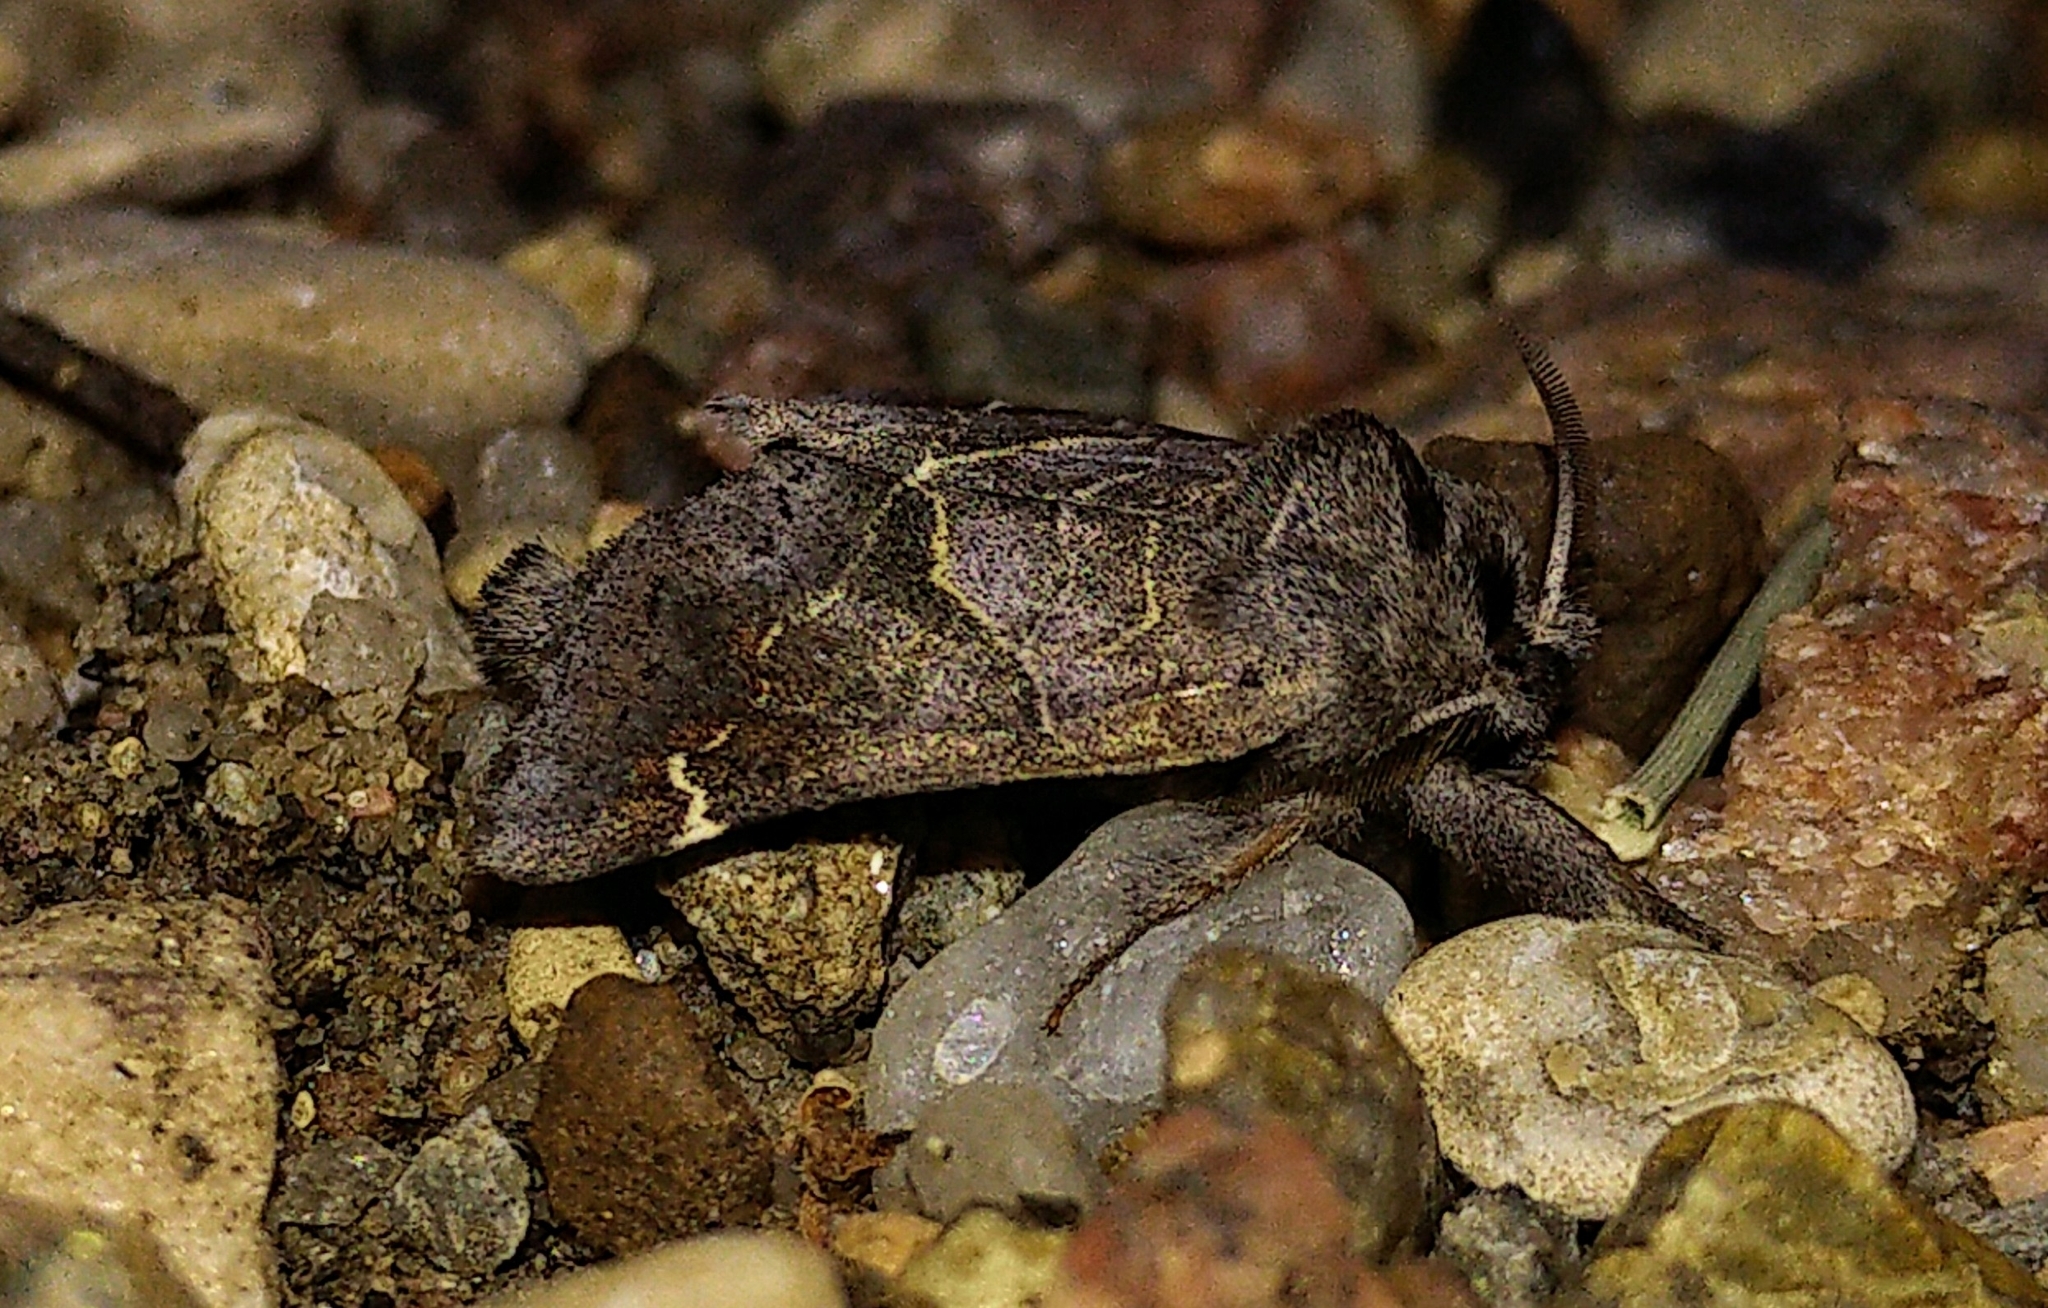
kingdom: Animalia
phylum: Arthropoda
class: Insecta
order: Lepidoptera
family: Notodontidae
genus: Clostera
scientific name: Clostera apicalis
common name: Apical prominent
